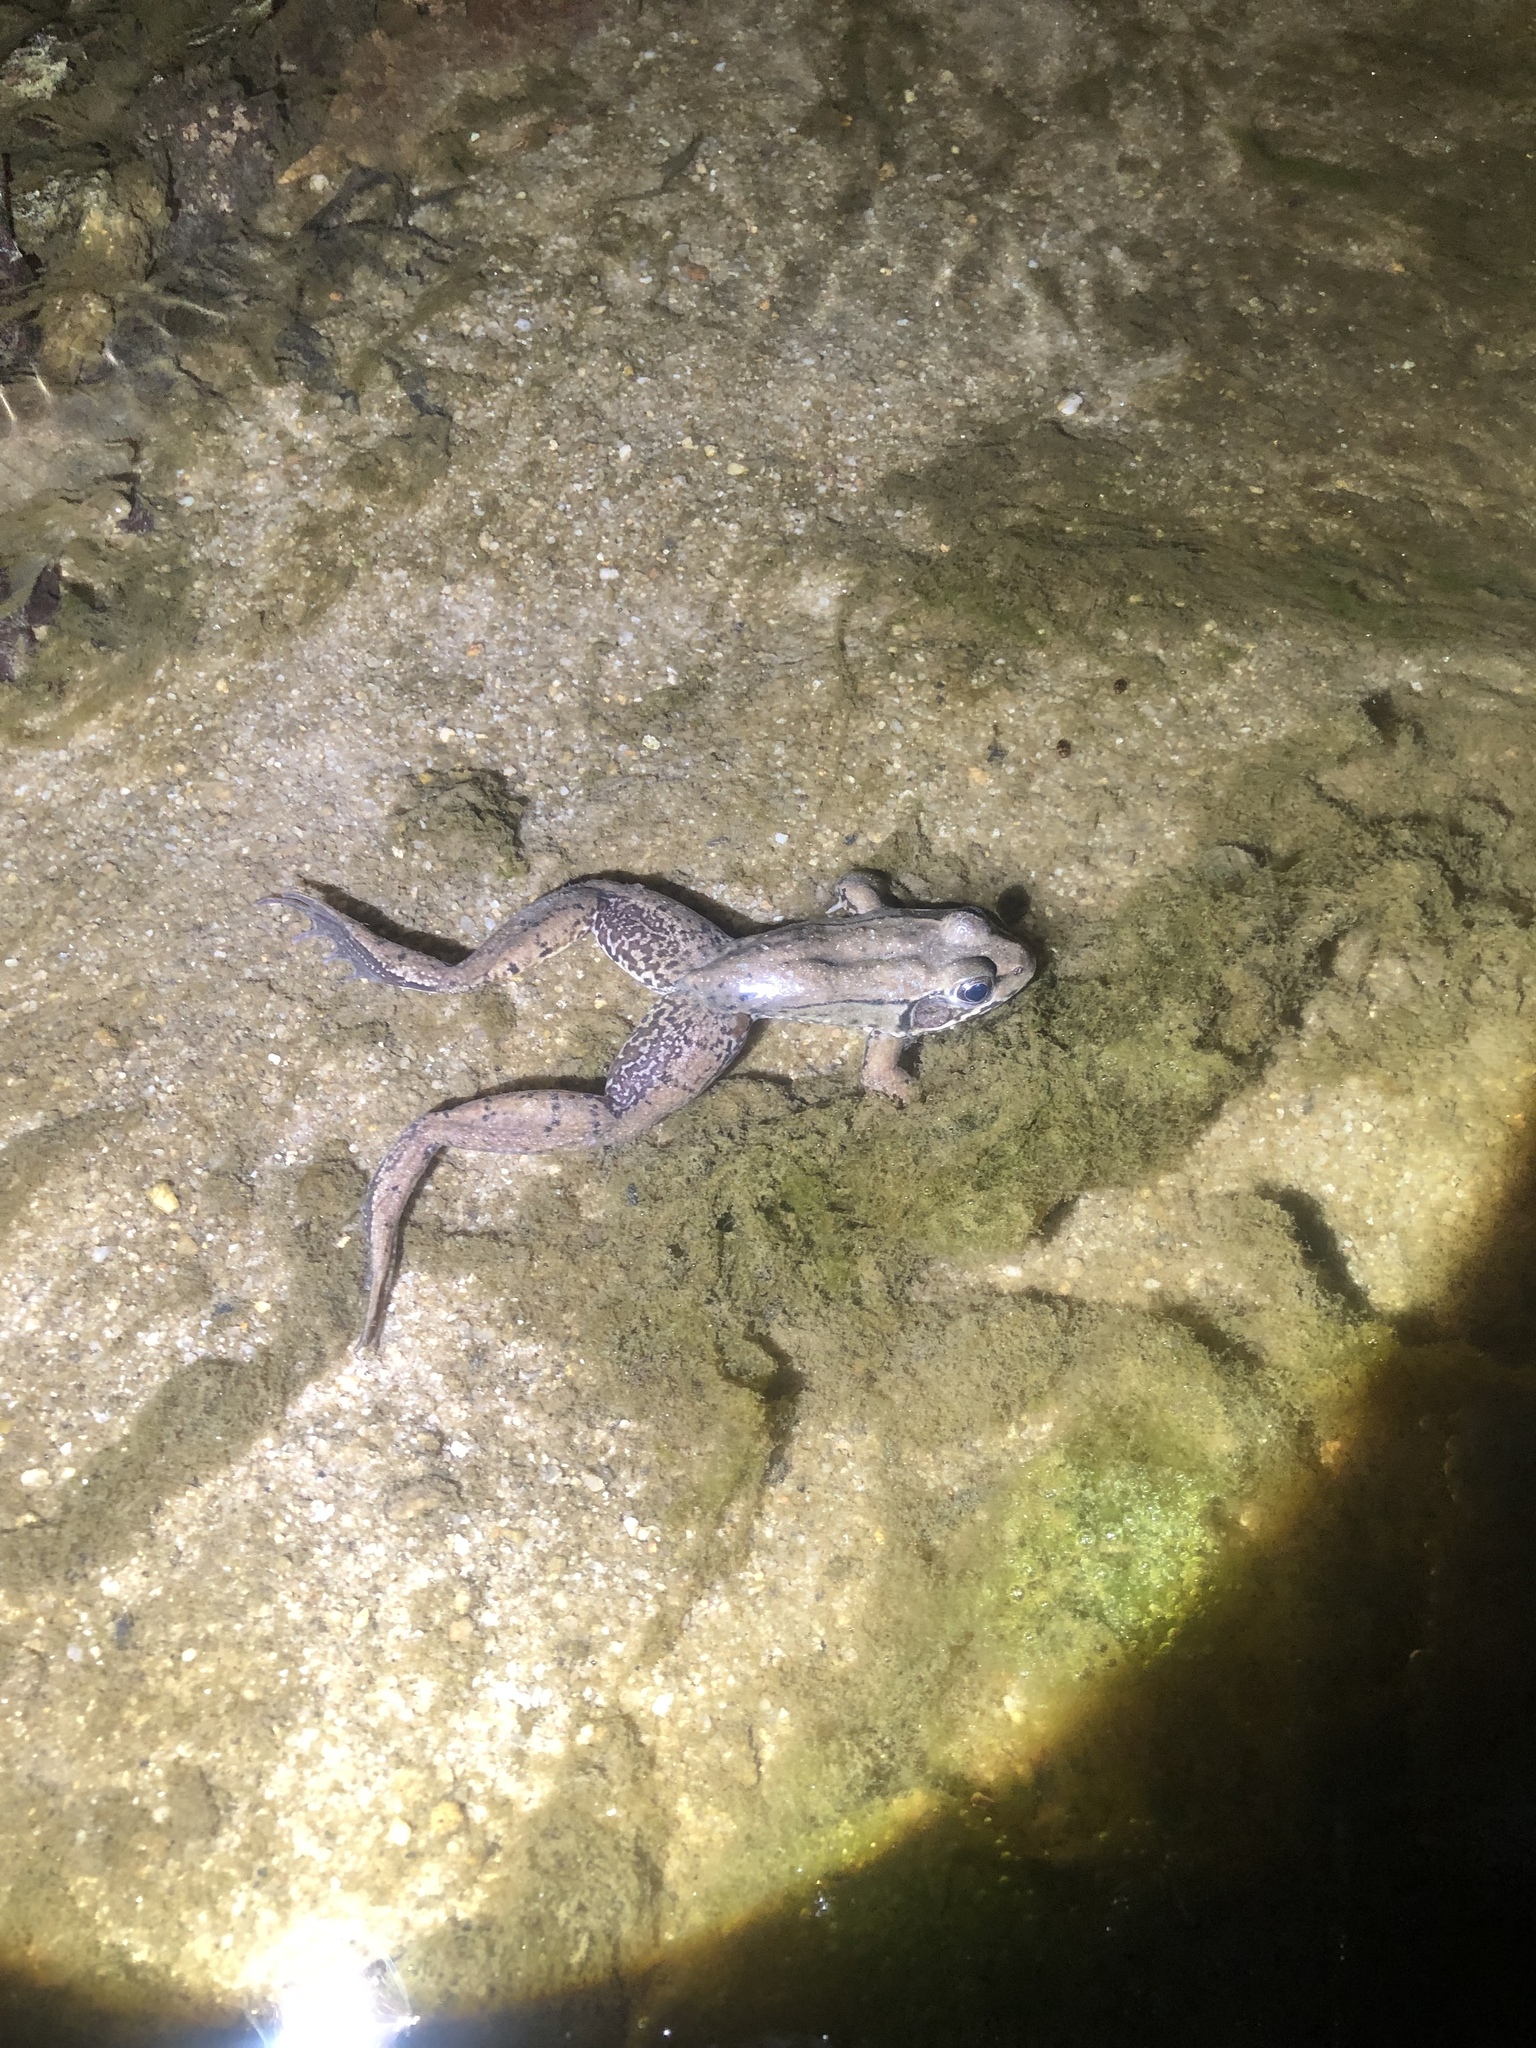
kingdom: Animalia
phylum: Chordata
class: Amphibia
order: Anura
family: Ranidae
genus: Lithobates
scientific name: Lithobates clamitans
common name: Green frog
